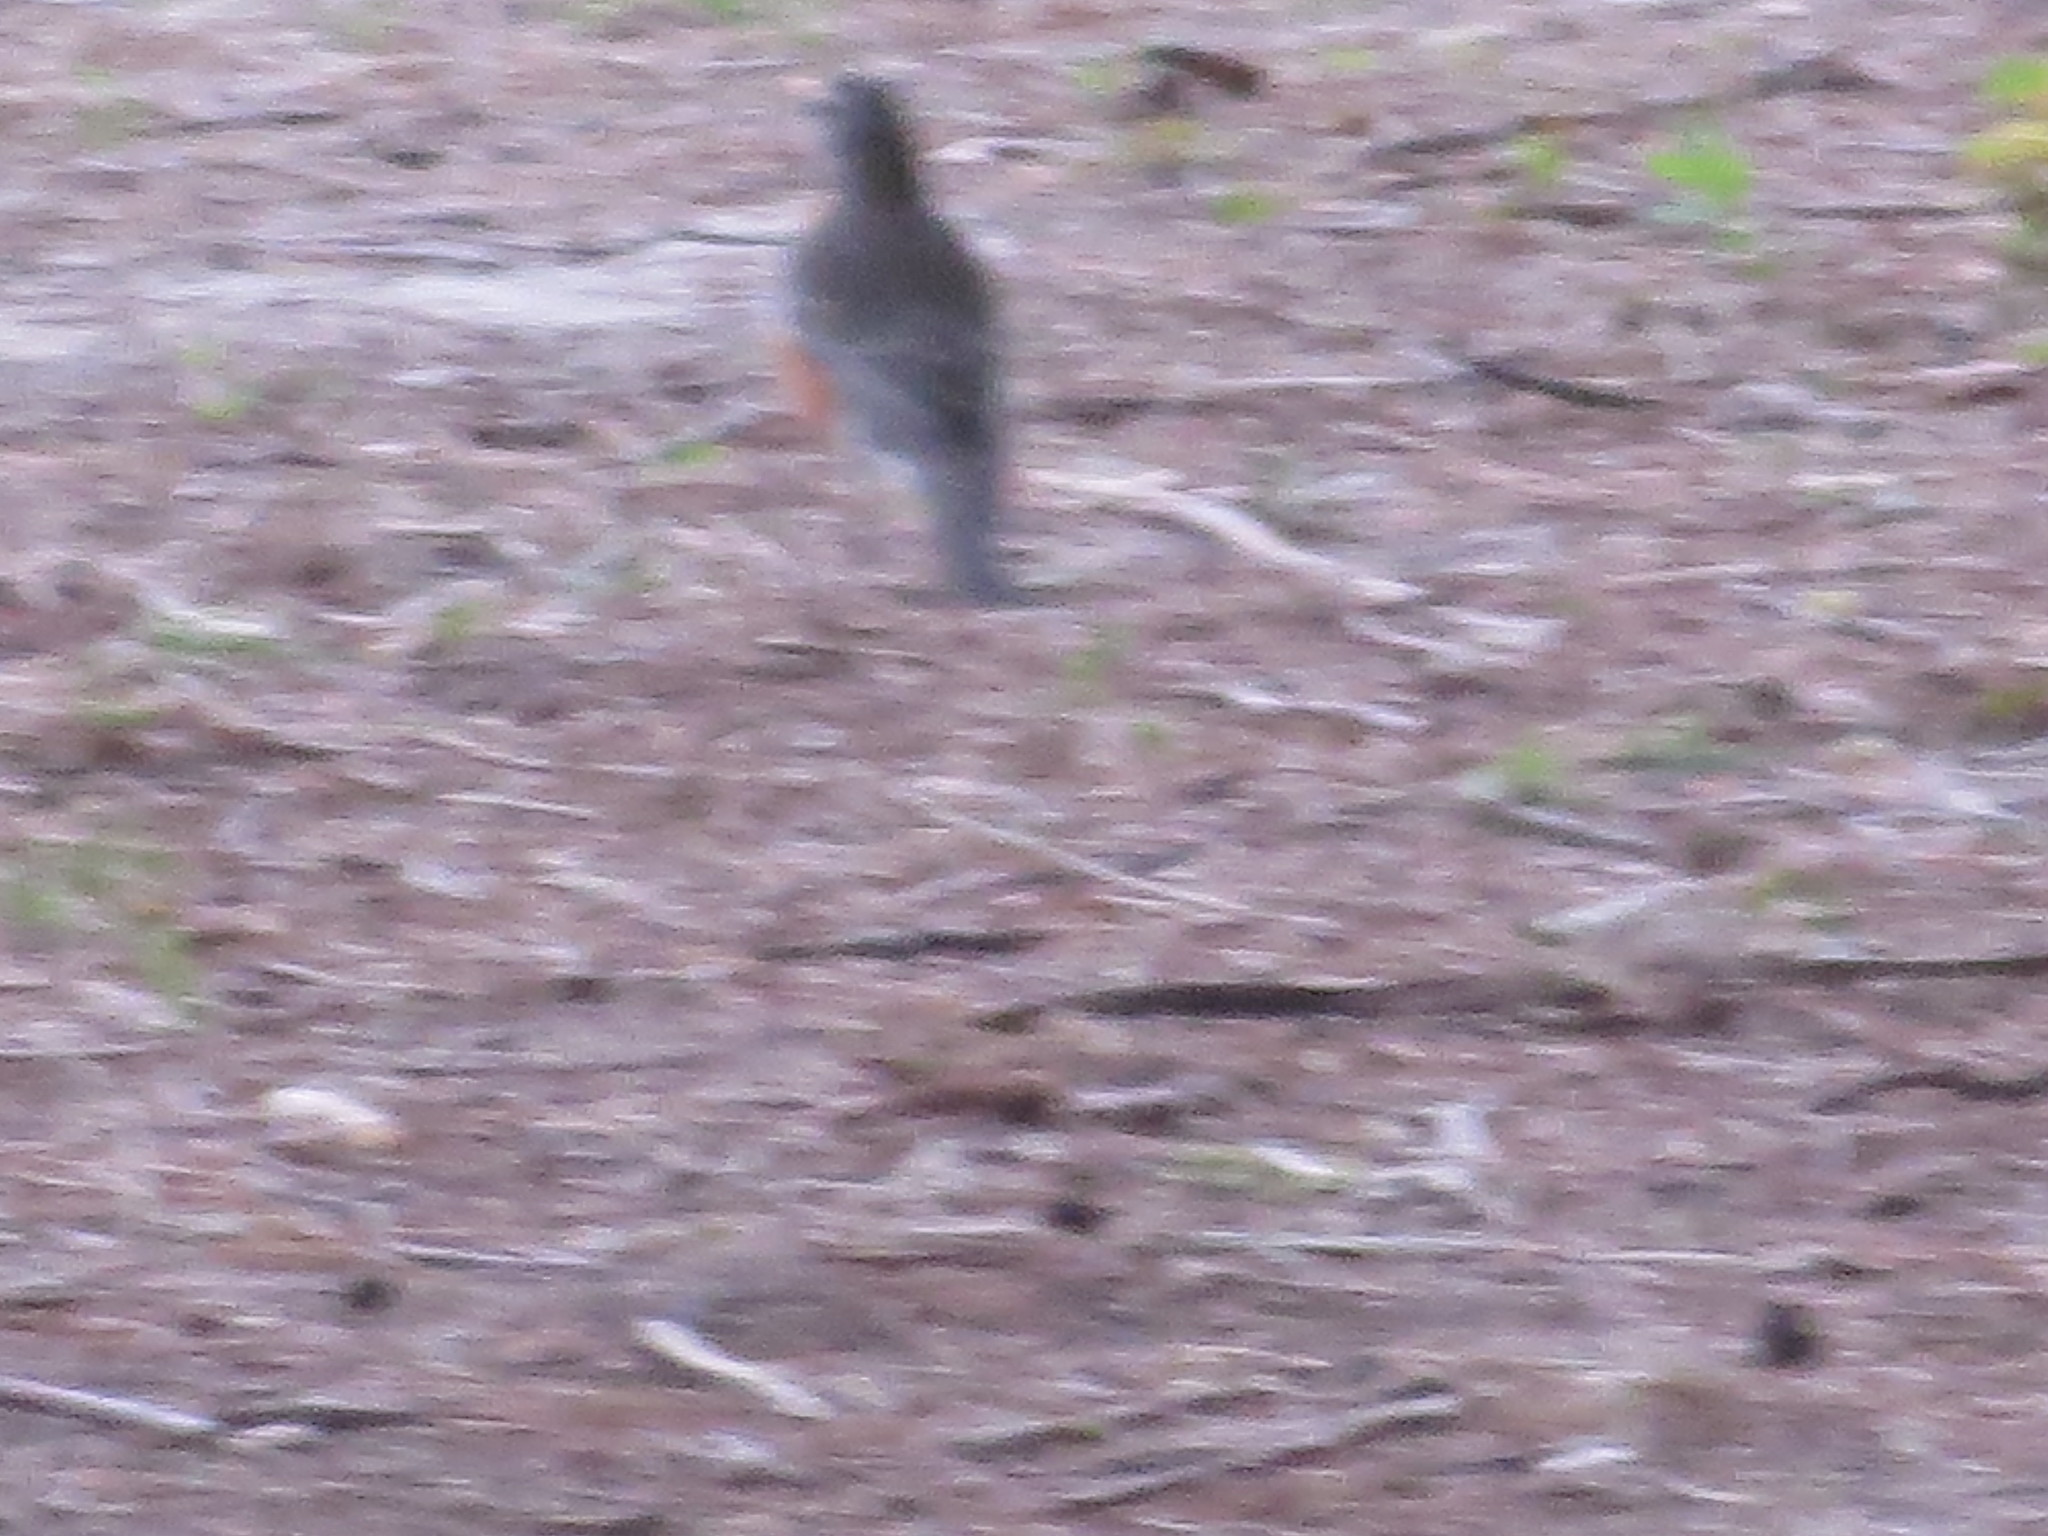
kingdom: Animalia
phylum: Chordata
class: Aves
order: Passeriformes
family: Turdidae
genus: Turdus
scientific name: Turdus migratorius
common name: American robin
